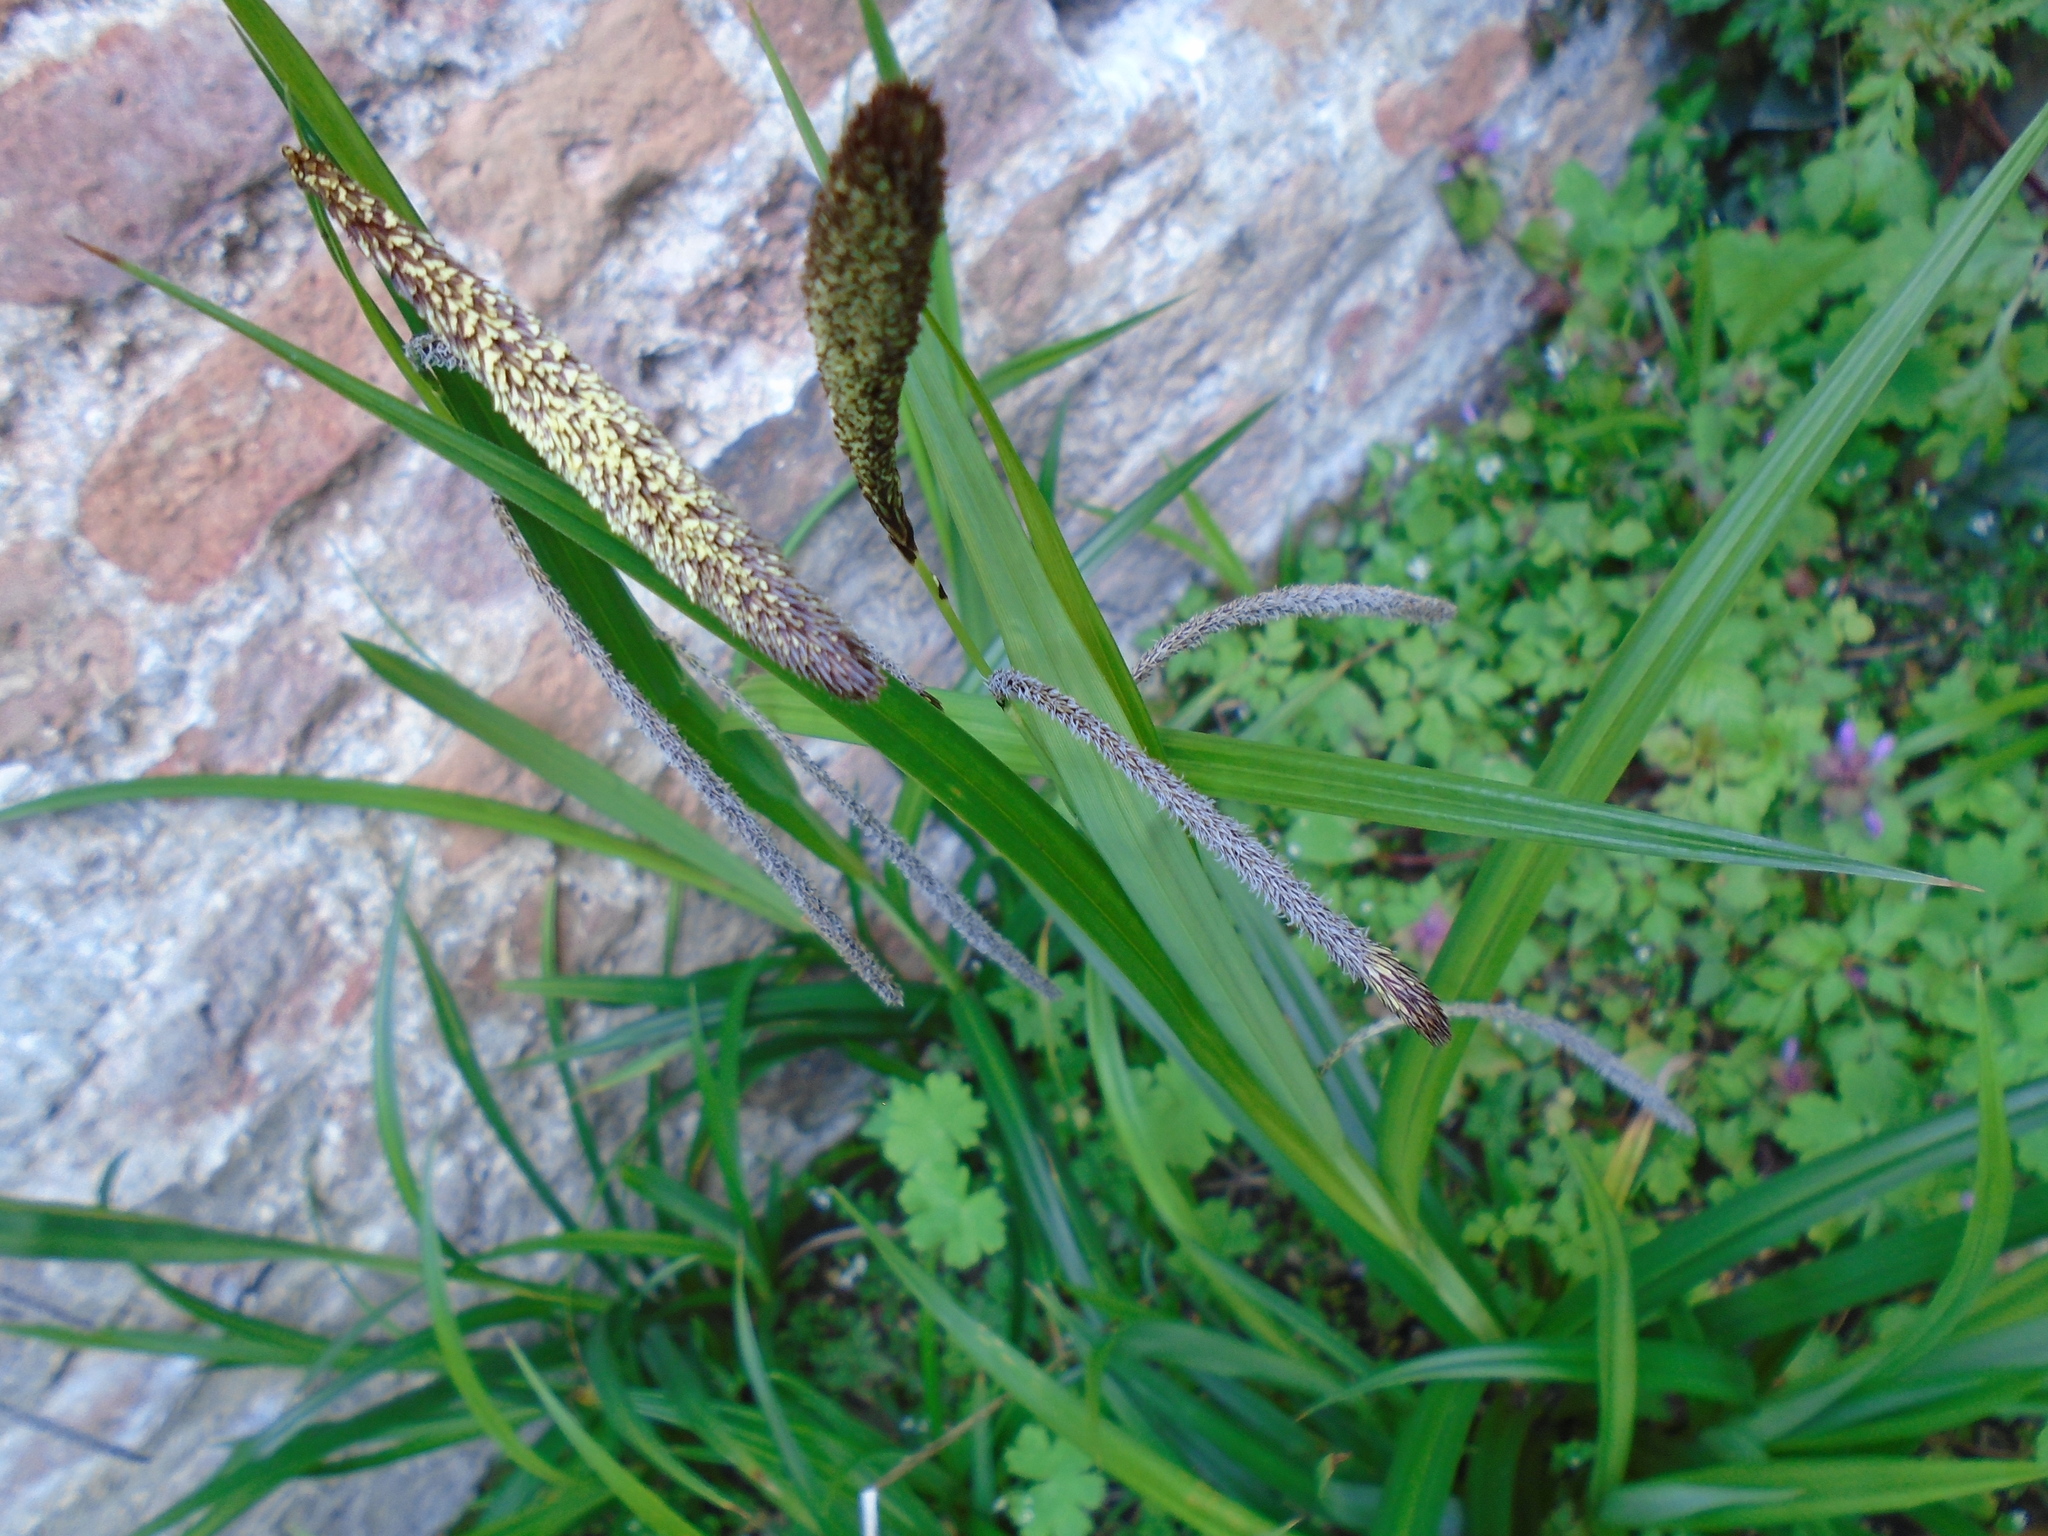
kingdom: Plantae
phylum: Tracheophyta
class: Liliopsida
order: Poales
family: Cyperaceae
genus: Carex
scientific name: Carex pendula
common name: Pendulous sedge
